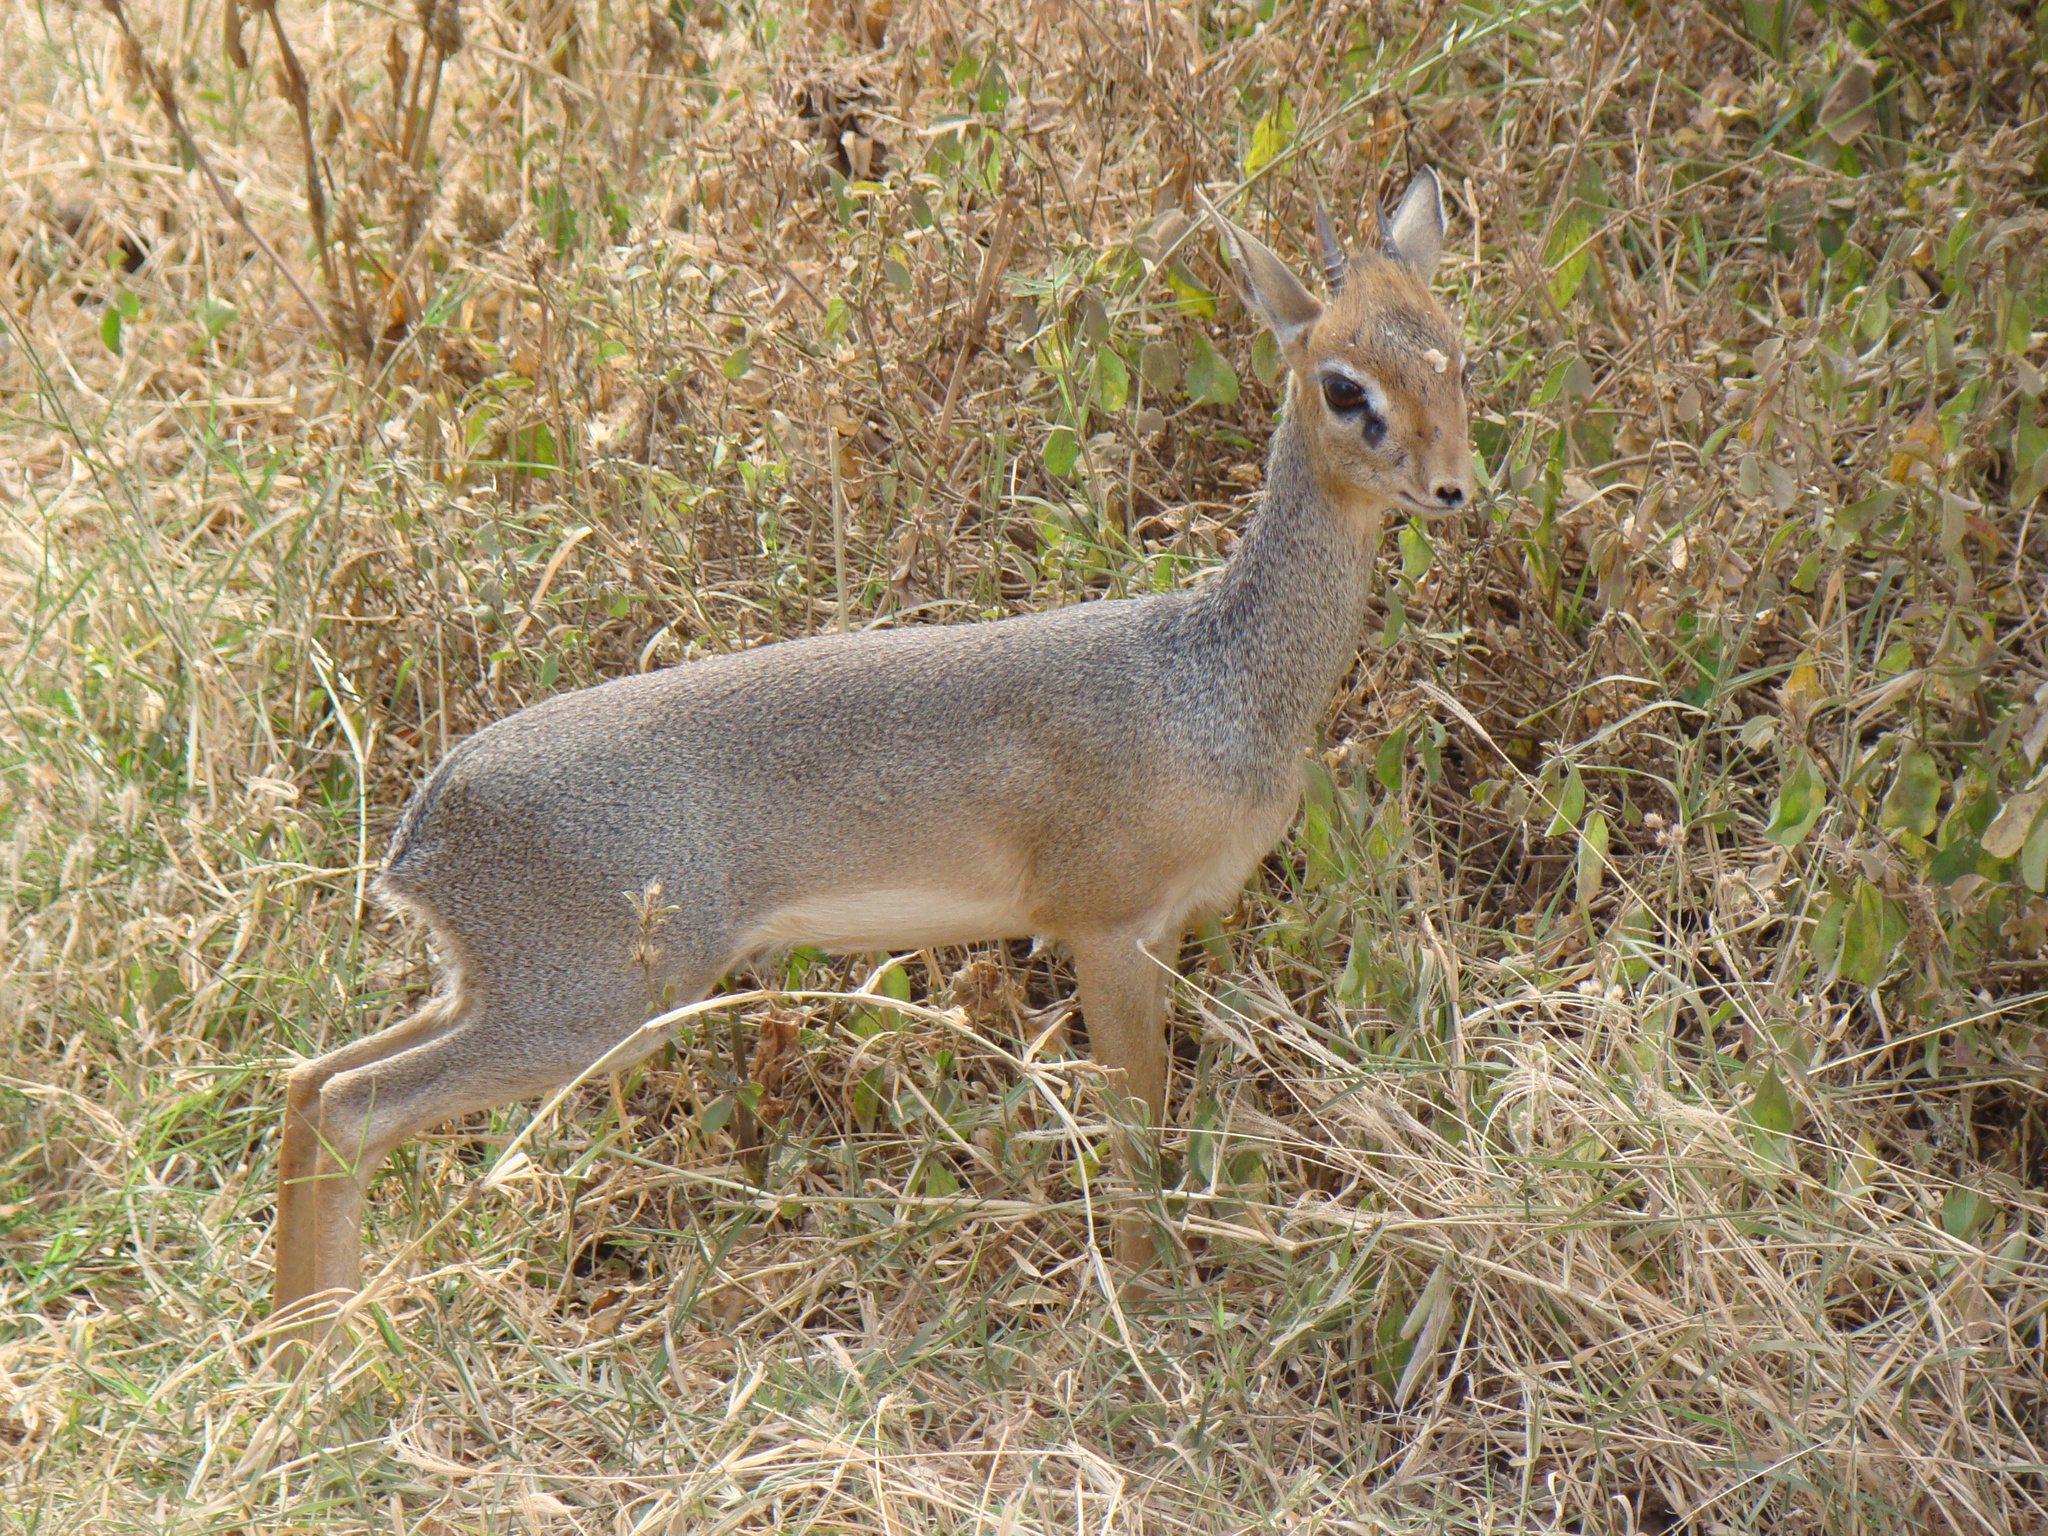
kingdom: Animalia
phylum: Chordata
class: Mammalia
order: Artiodactyla
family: Bovidae
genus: Madoqua
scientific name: Madoqua
